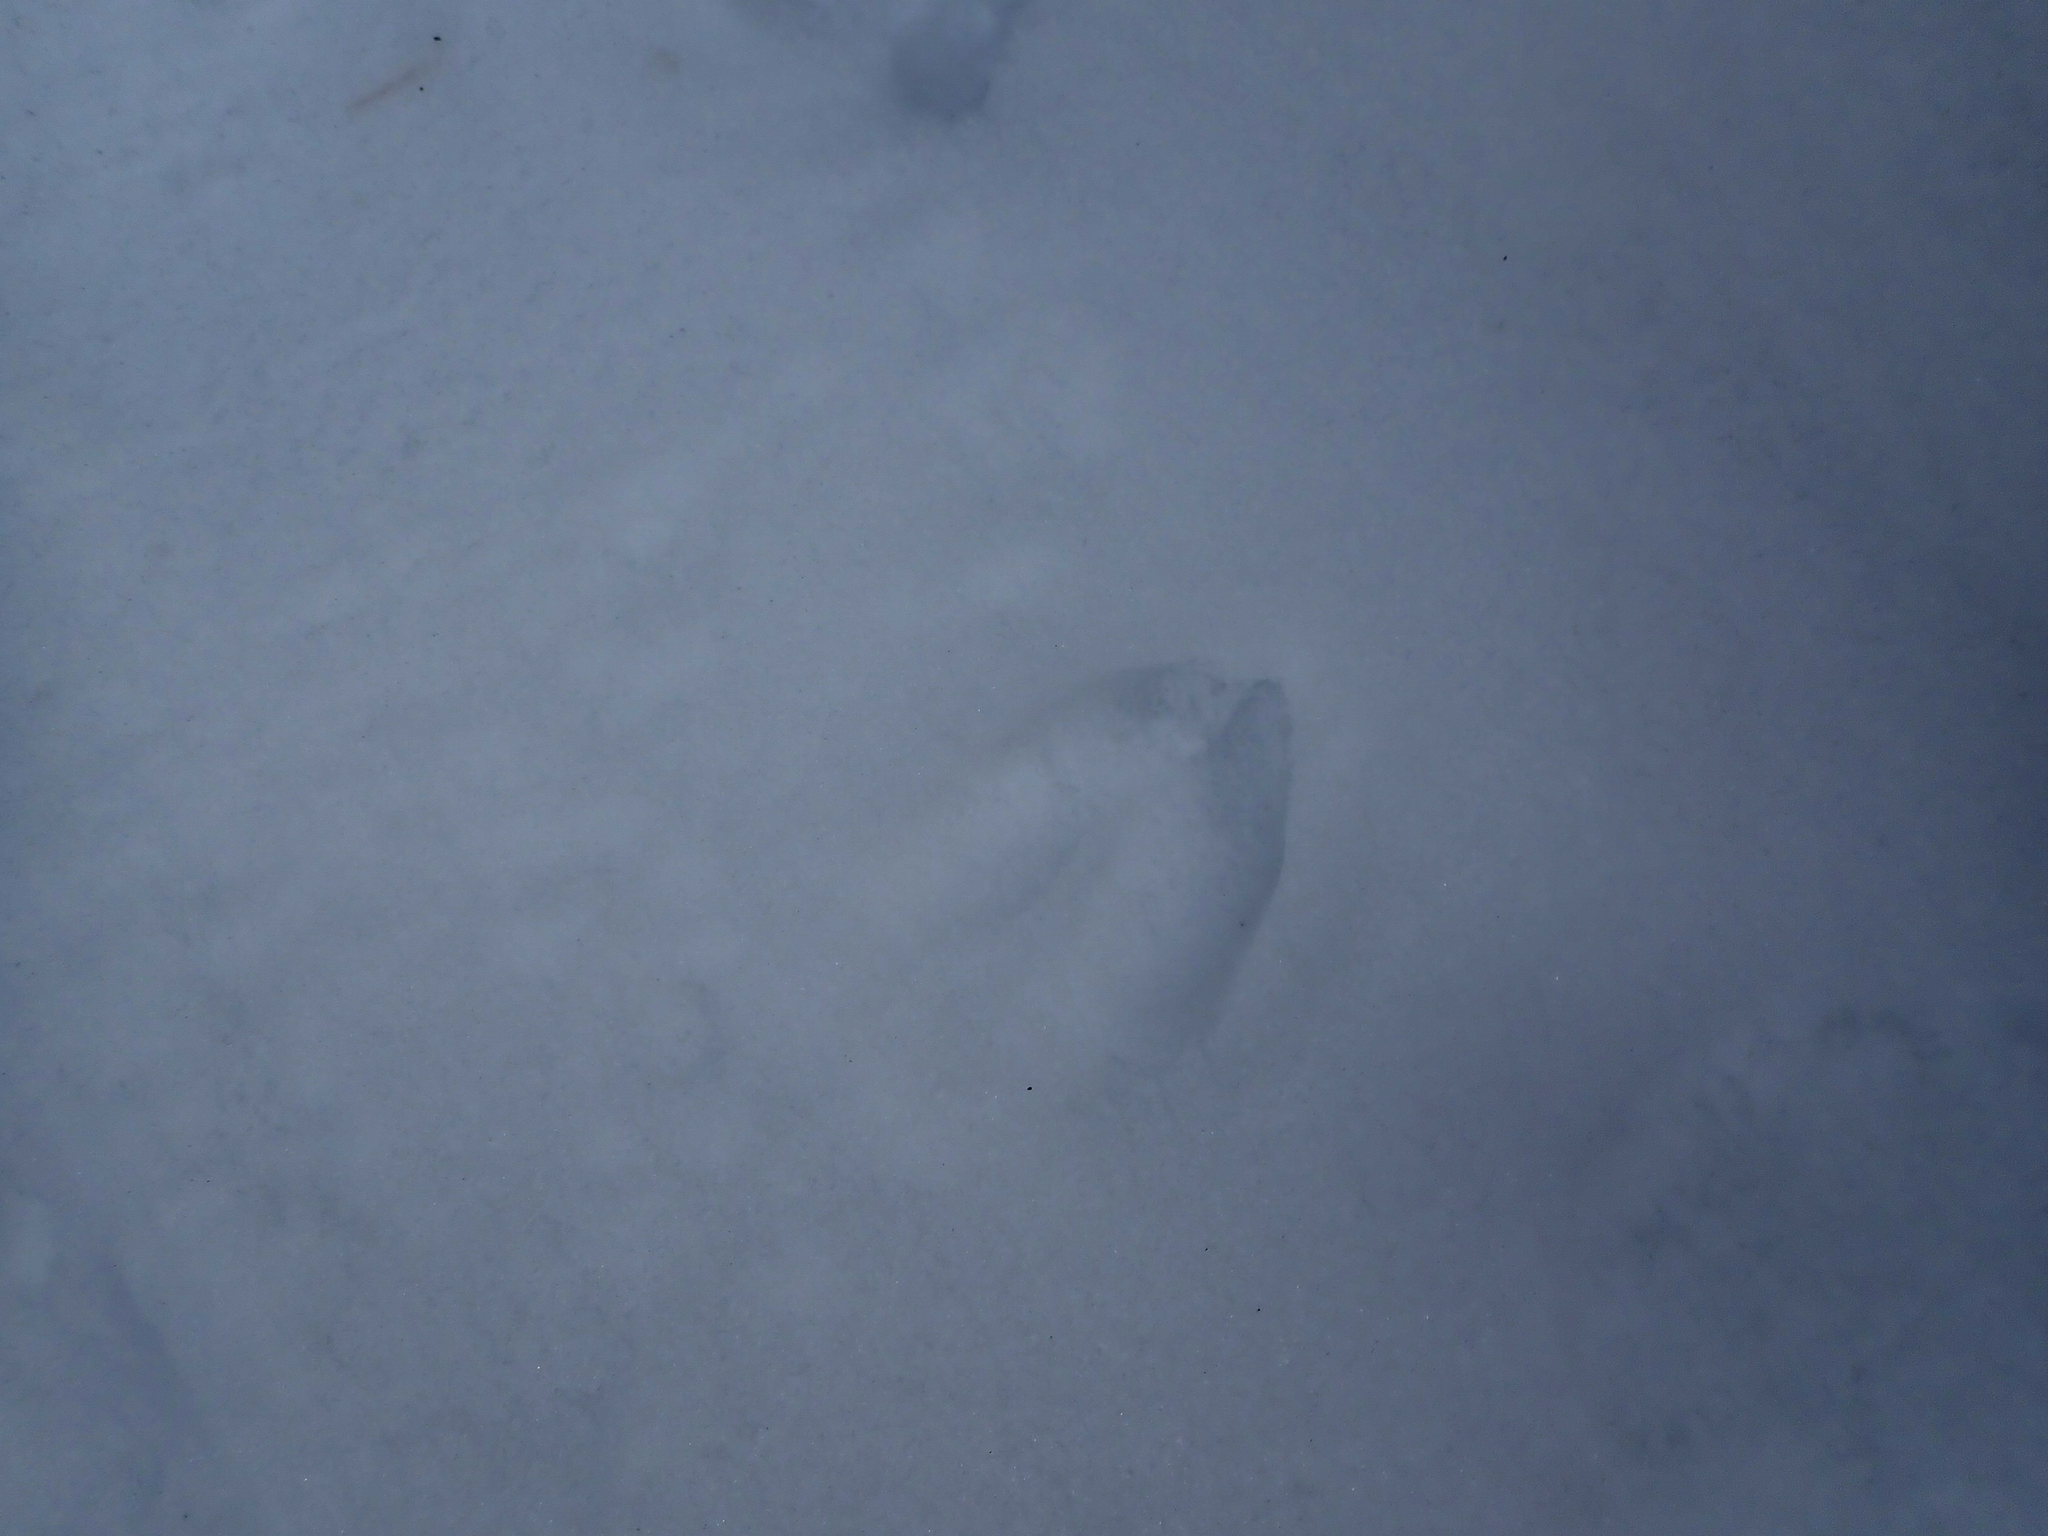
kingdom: Animalia
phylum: Chordata
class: Mammalia
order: Artiodactyla
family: Cervidae
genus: Odocoileus
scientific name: Odocoileus virginianus
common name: White-tailed deer
